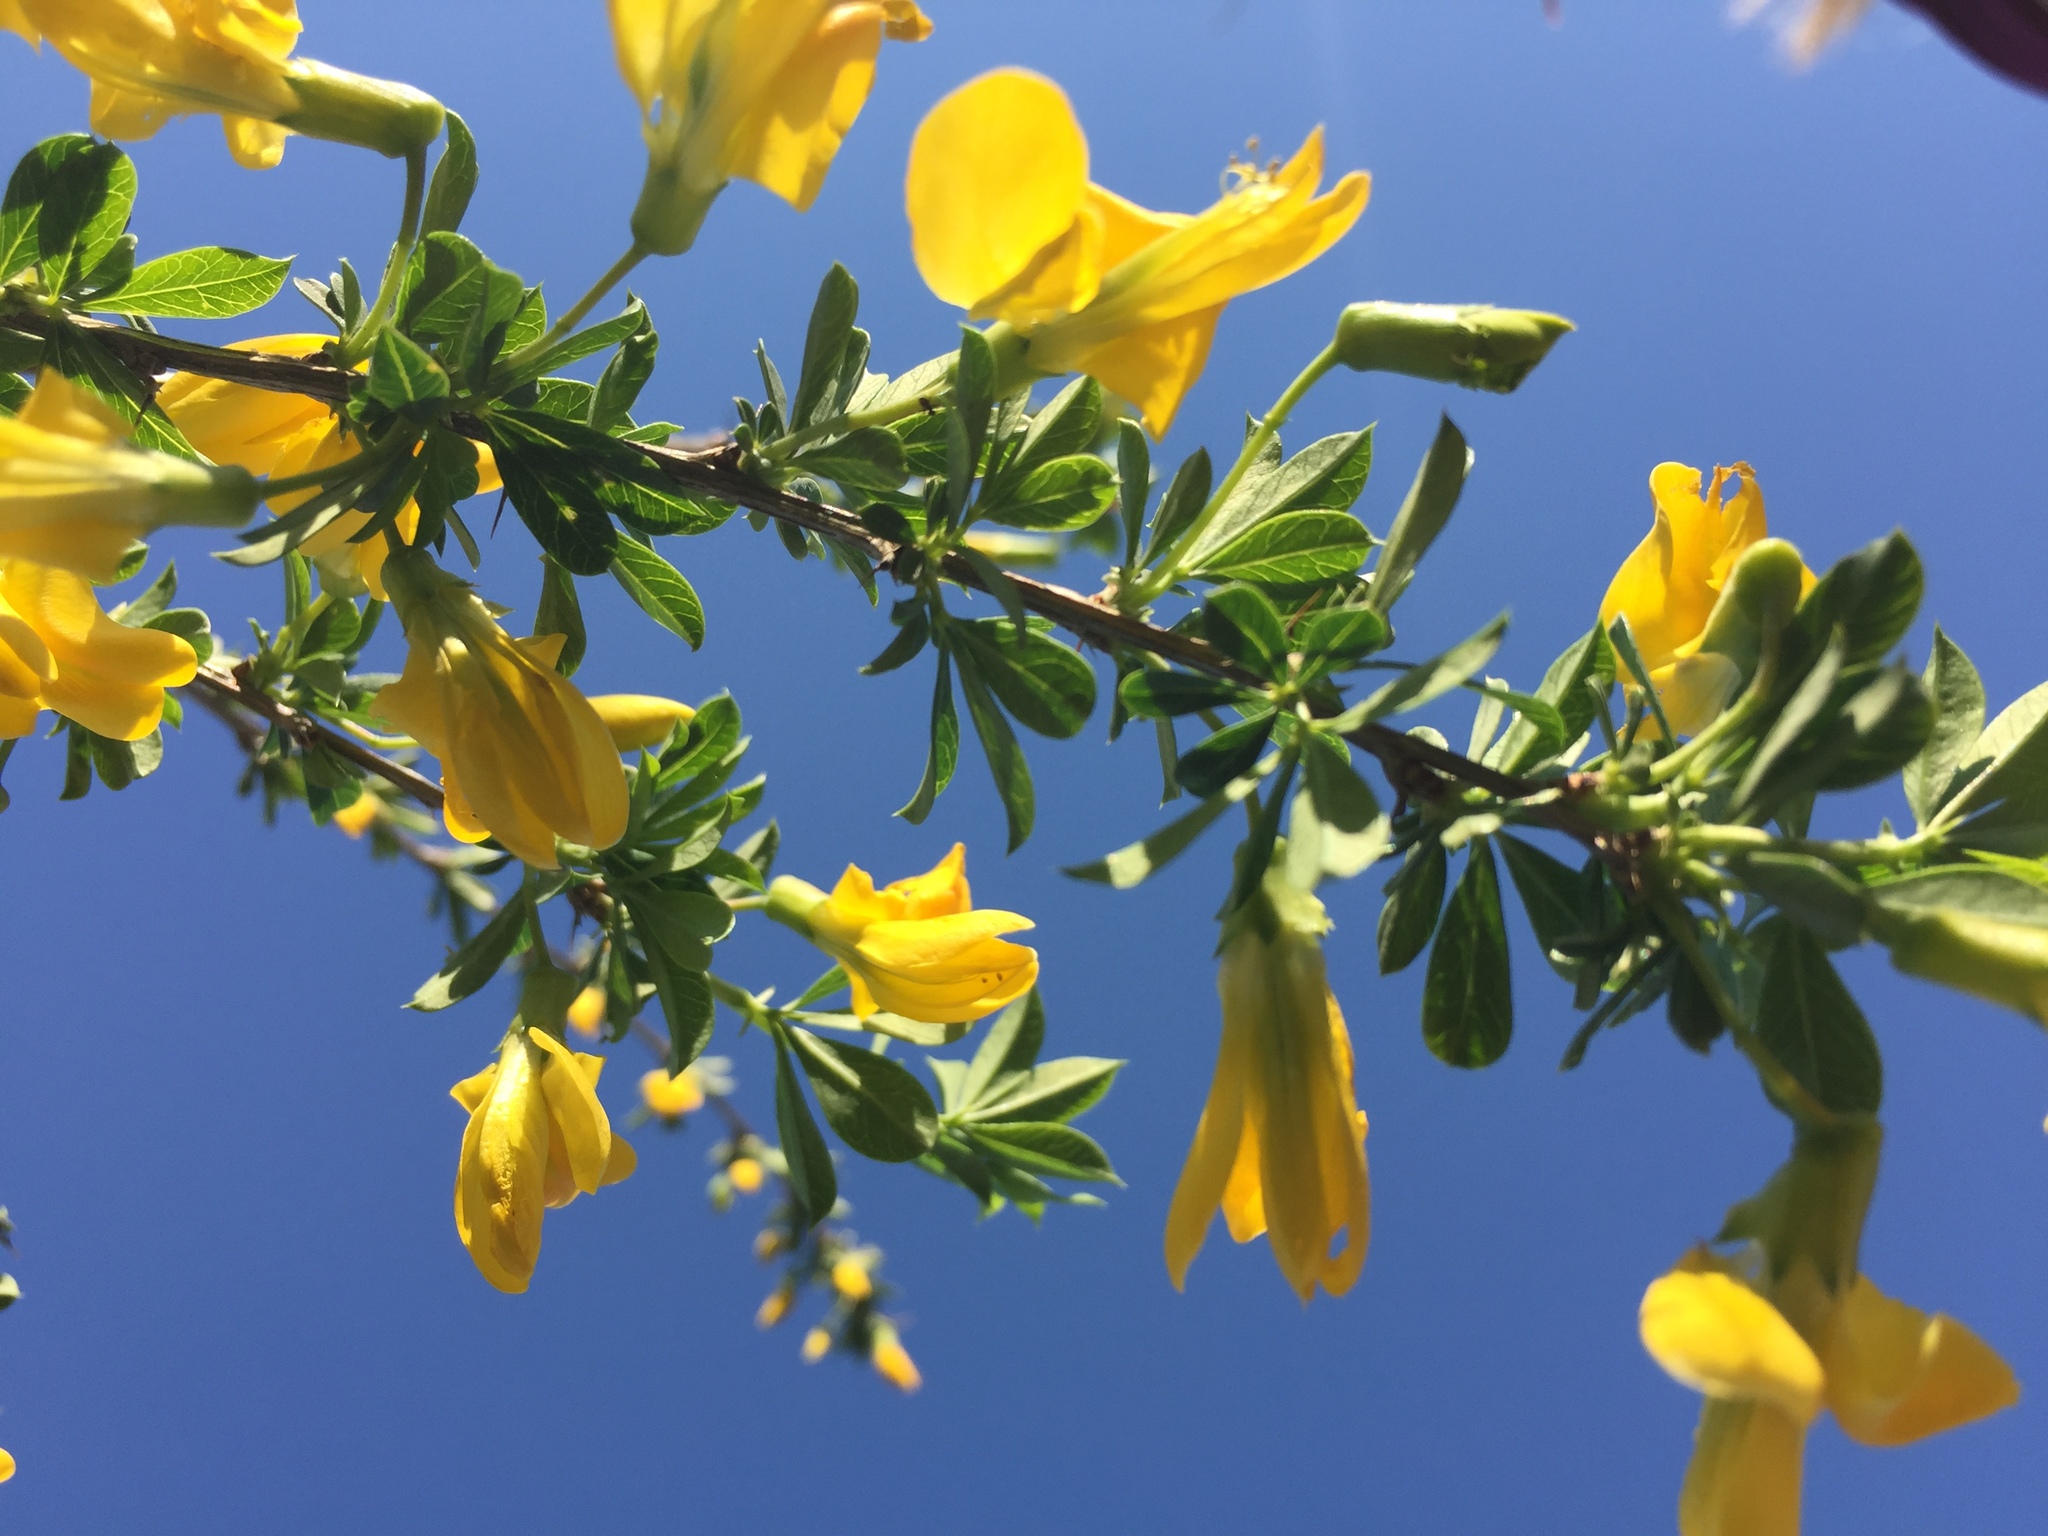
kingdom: Plantae
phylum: Tracheophyta
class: Magnoliopsida
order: Fabales
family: Fabaceae
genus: Caragana
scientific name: Caragana frutex
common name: Russian peashrub
